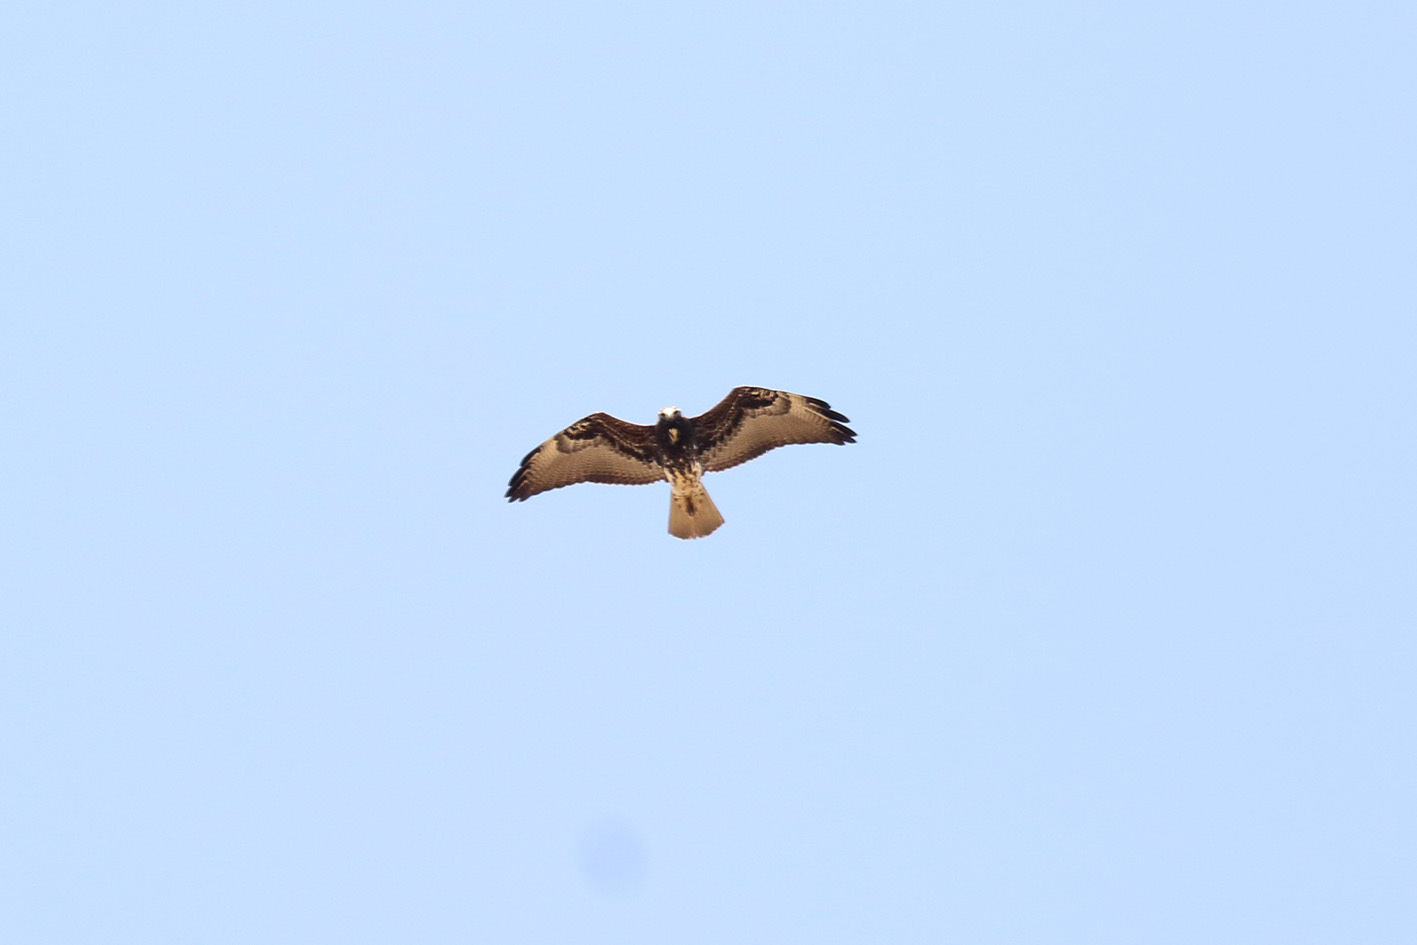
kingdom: Animalia
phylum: Chordata
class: Aves
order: Accipitriformes
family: Accipitridae
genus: Buteo
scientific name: Buteo albicaudatus
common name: White-tailed hawk
